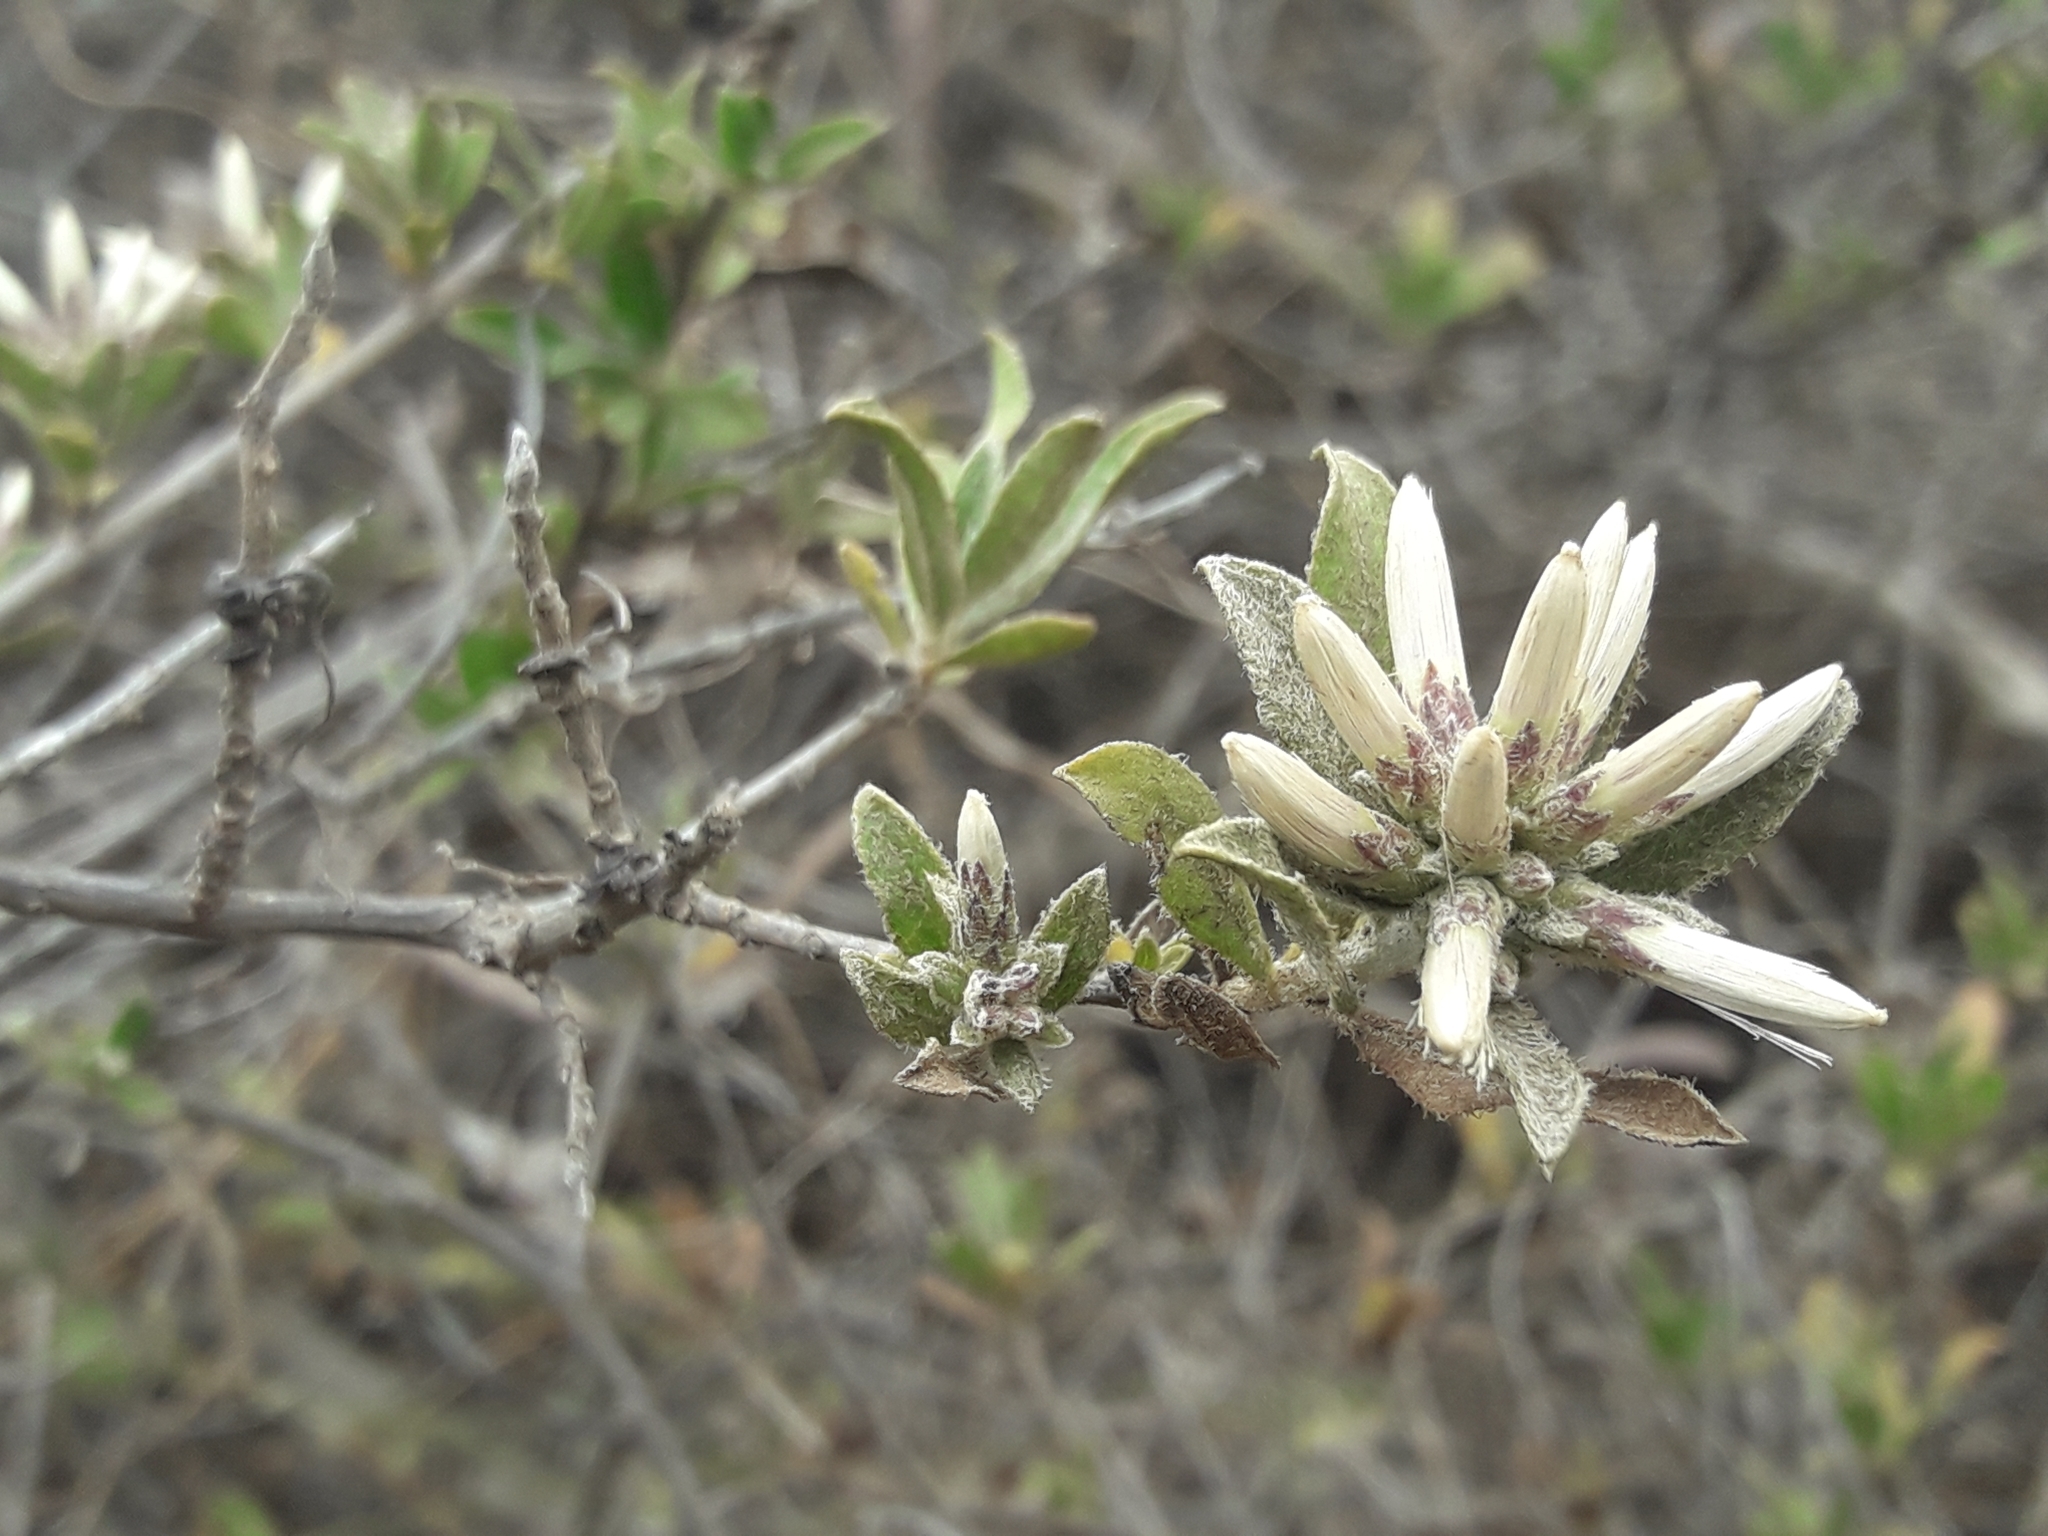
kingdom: Plantae
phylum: Tracheophyta
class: Magnoliopsida
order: Asterales
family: Asteraceae
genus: Gochnatia
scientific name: Gochnatia foliolosa
